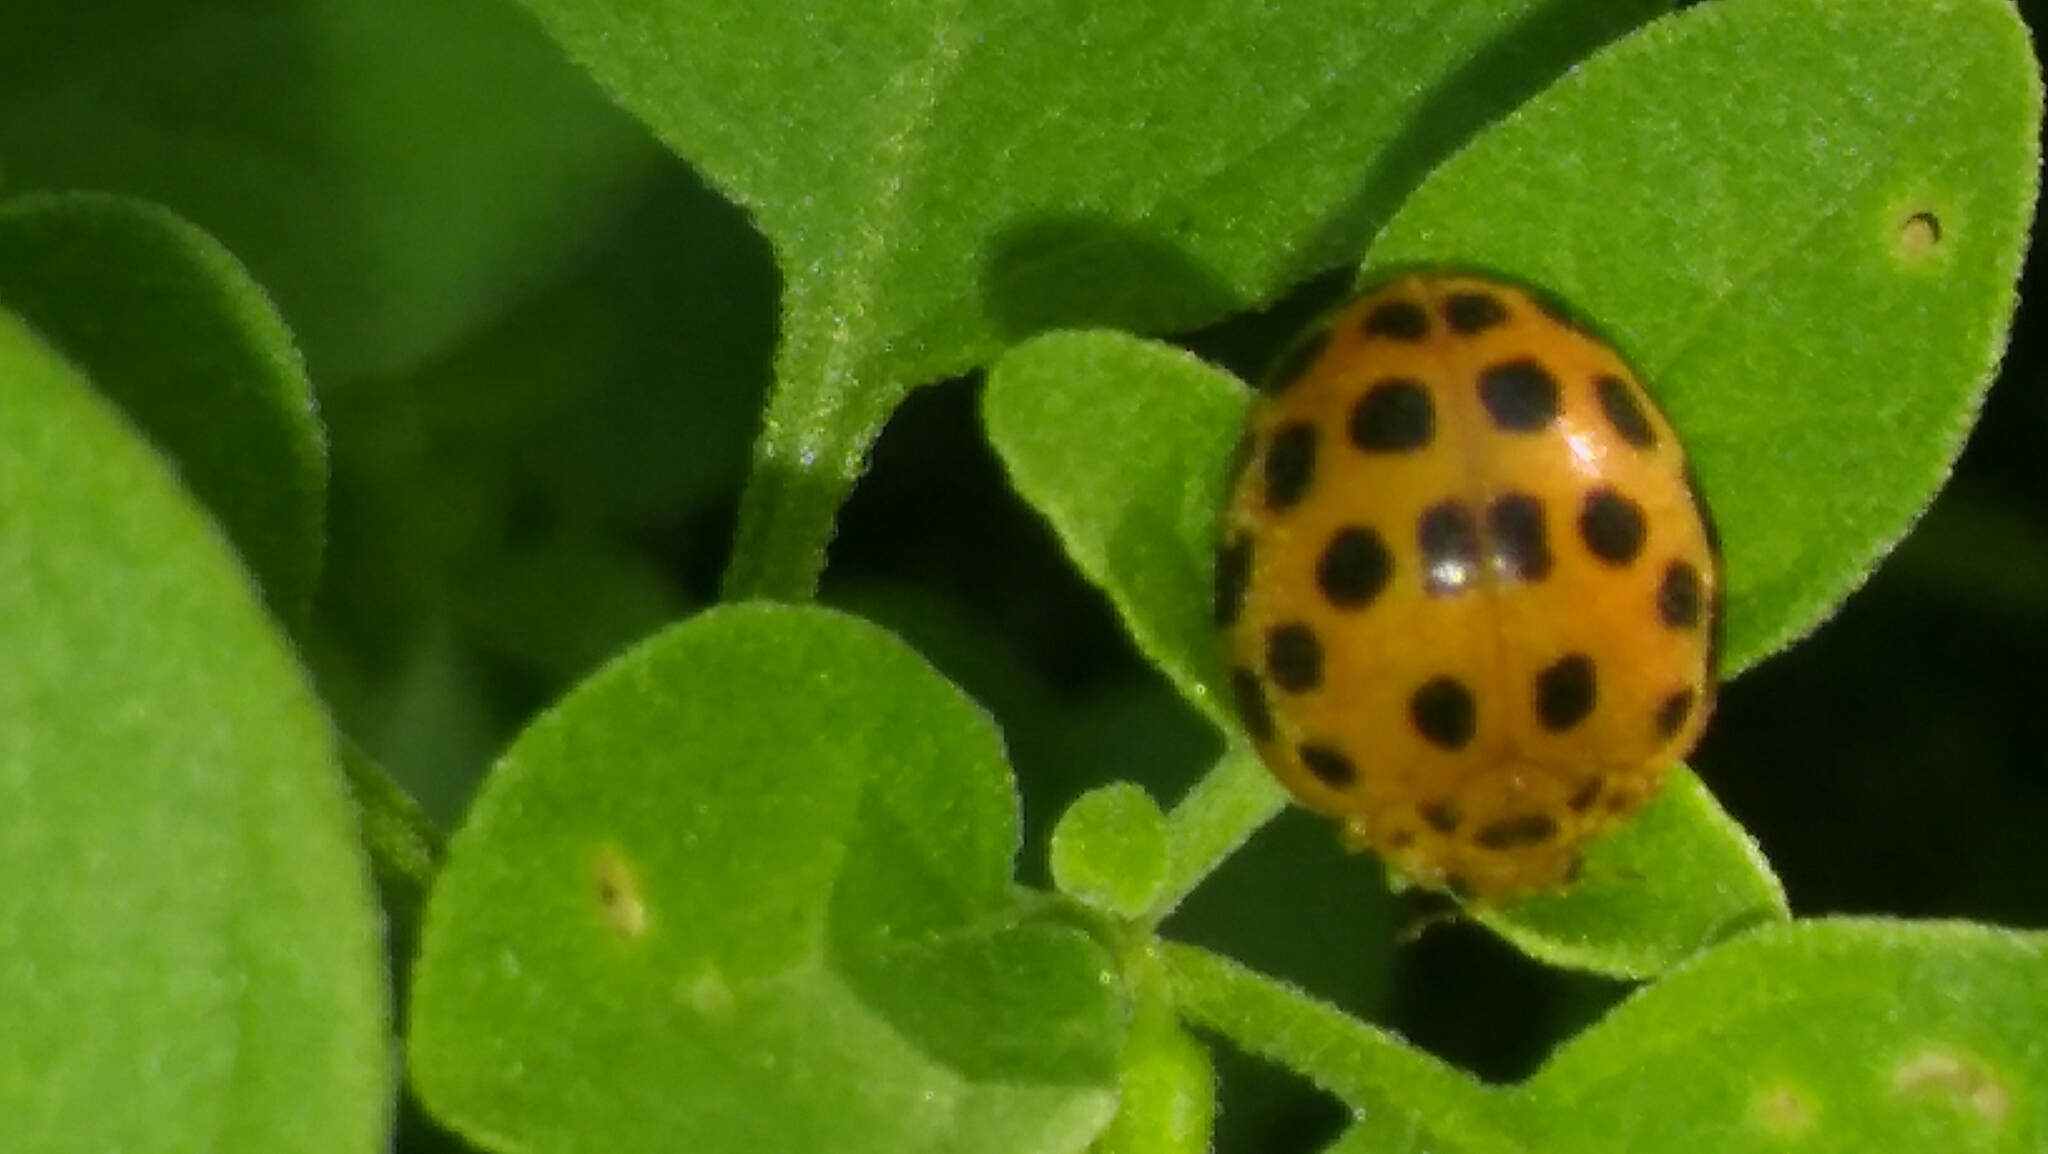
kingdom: Animalia
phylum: Arthropoda
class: Insecta
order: Coleoptera
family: Coccinellidae
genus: Henosepilachna
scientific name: Henosepilachna vigintioctopunctata
